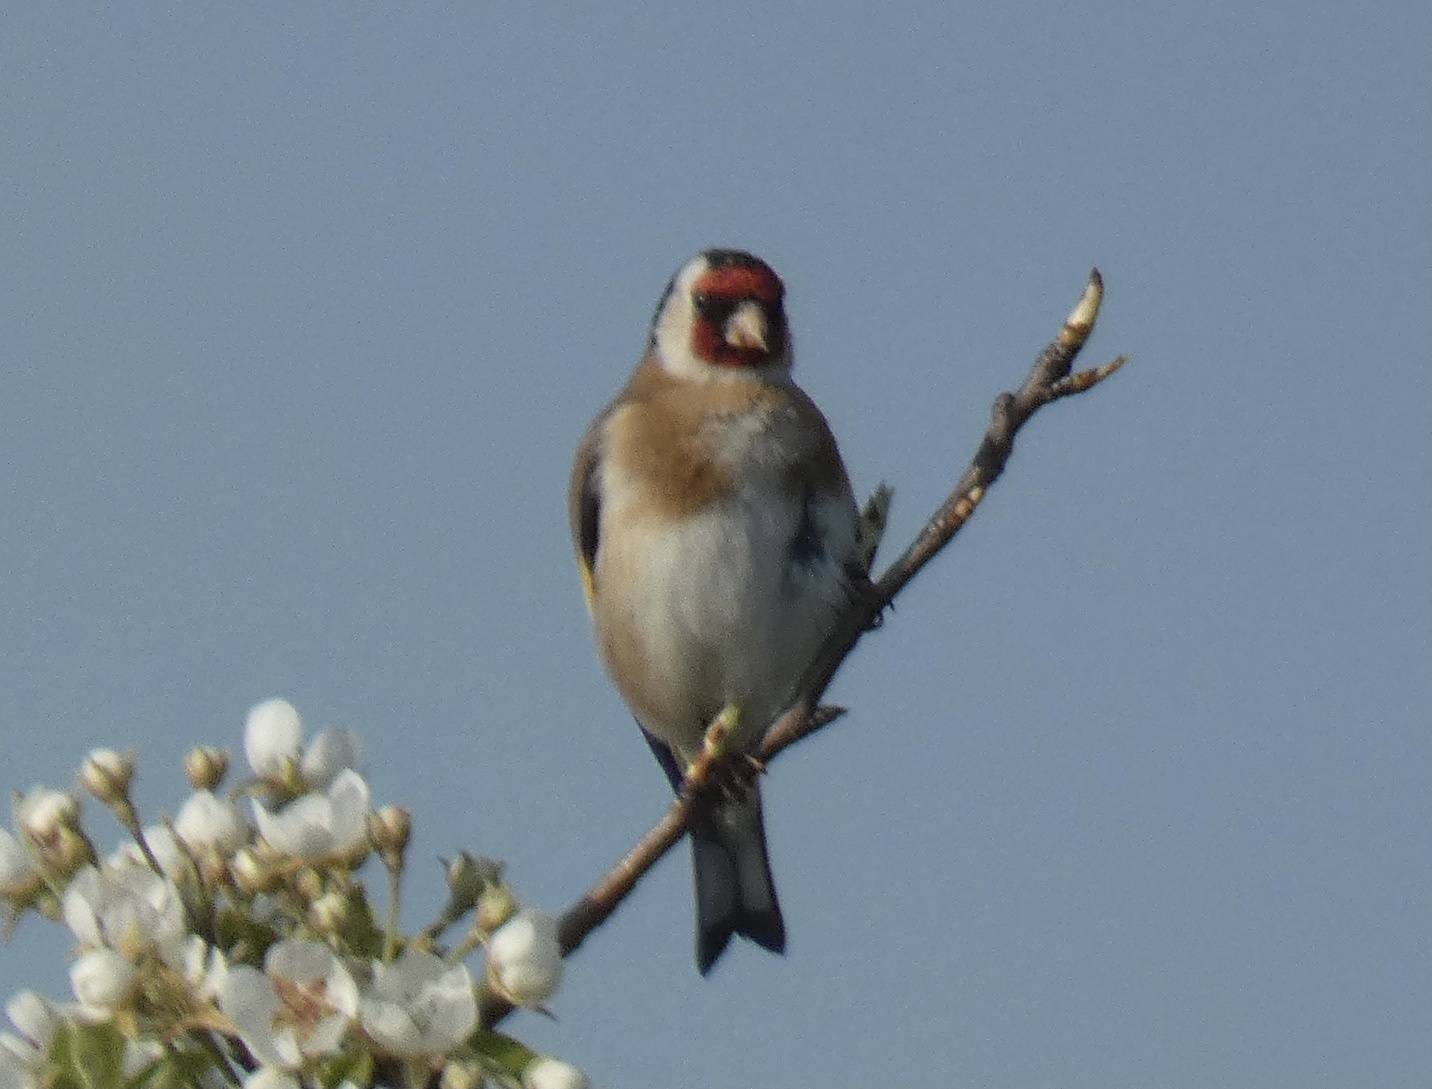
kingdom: Animalia
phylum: Chordata
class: Aves
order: Passeriformes
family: Fringillidae
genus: Carduelis
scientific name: Carduelis carduelis
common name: European goldfinch
